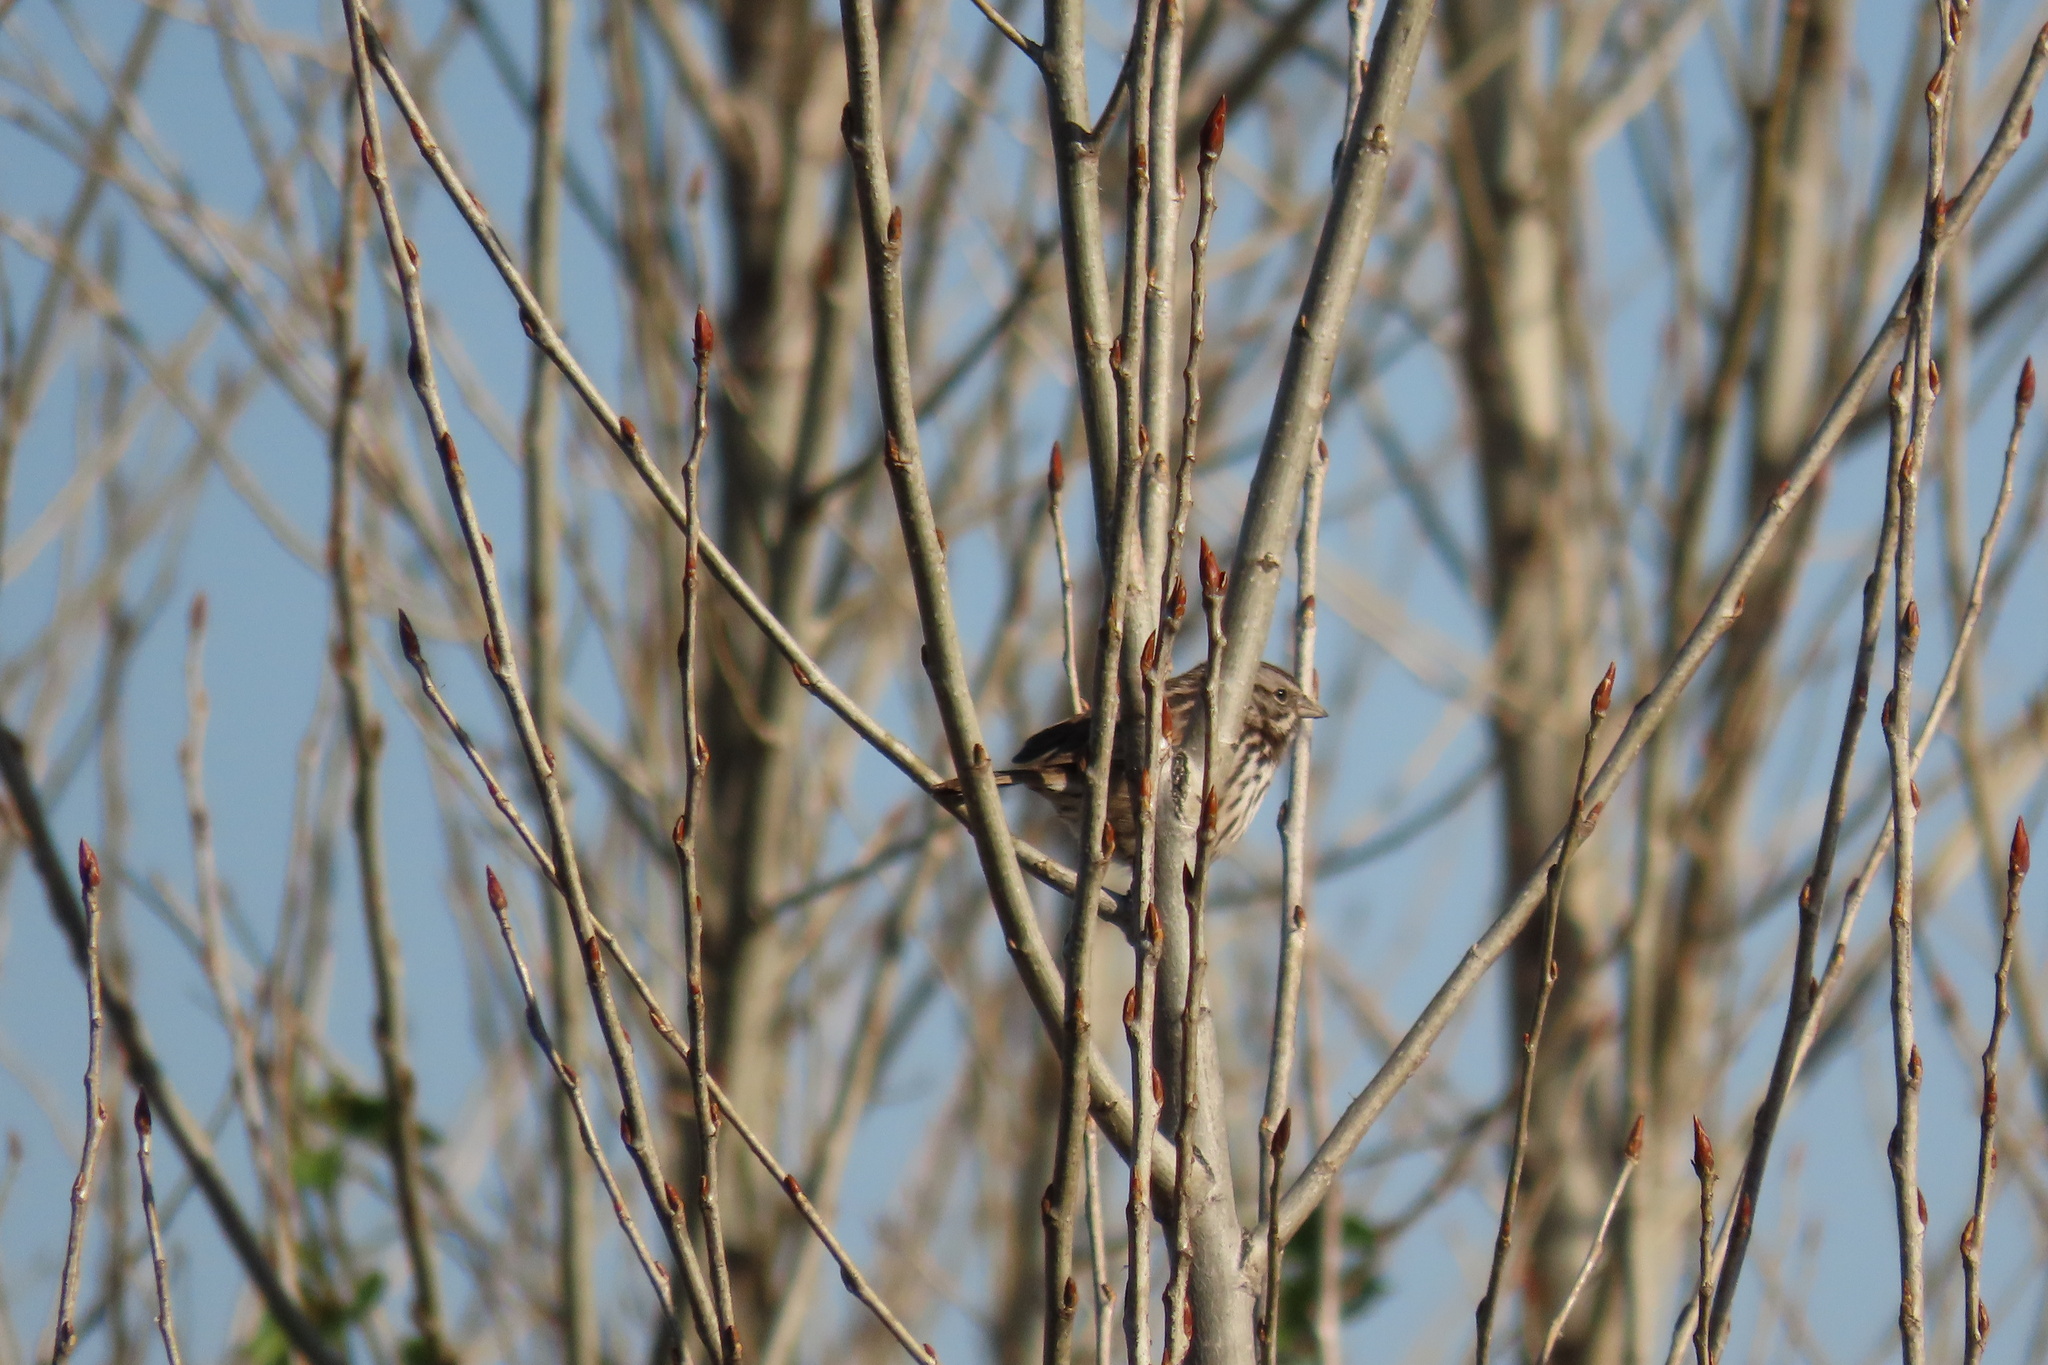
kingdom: Animalia
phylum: Chordata
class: Aves
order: Passeriformes
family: Passerellidae
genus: Melospiza
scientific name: Melospiza melodia
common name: Song sparrow
